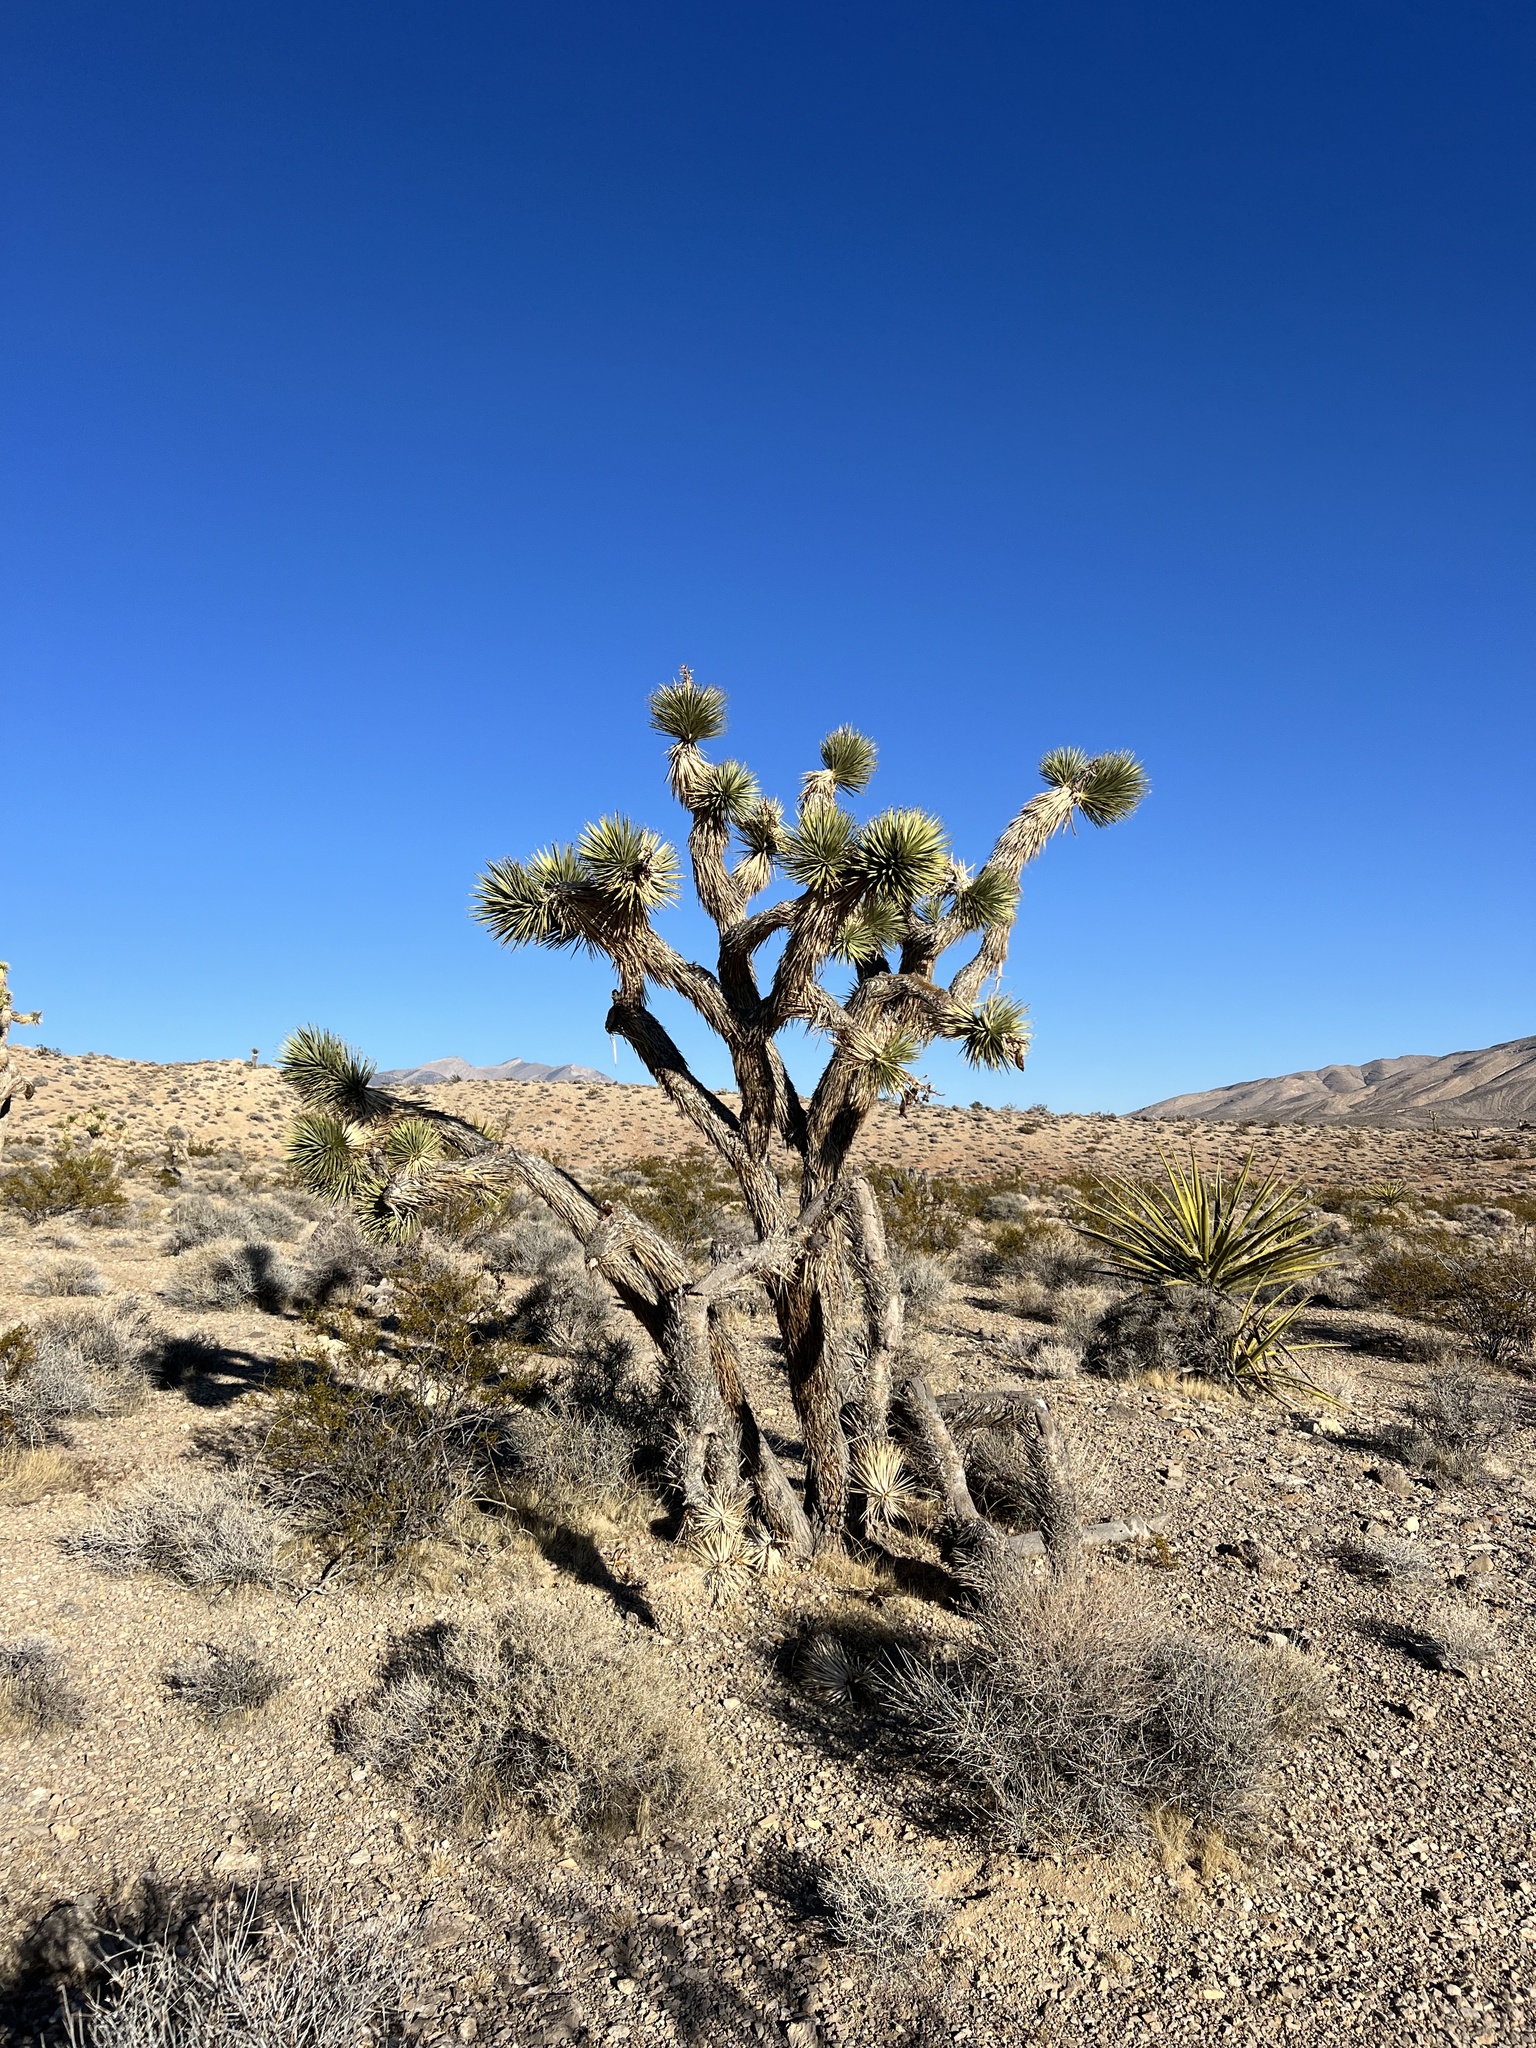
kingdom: Plantae
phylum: Tracheophyta
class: Liliopsida
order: Asparagales
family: Asparagaceae
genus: Yucca
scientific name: Yucca brevifolia
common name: Joshua tree
